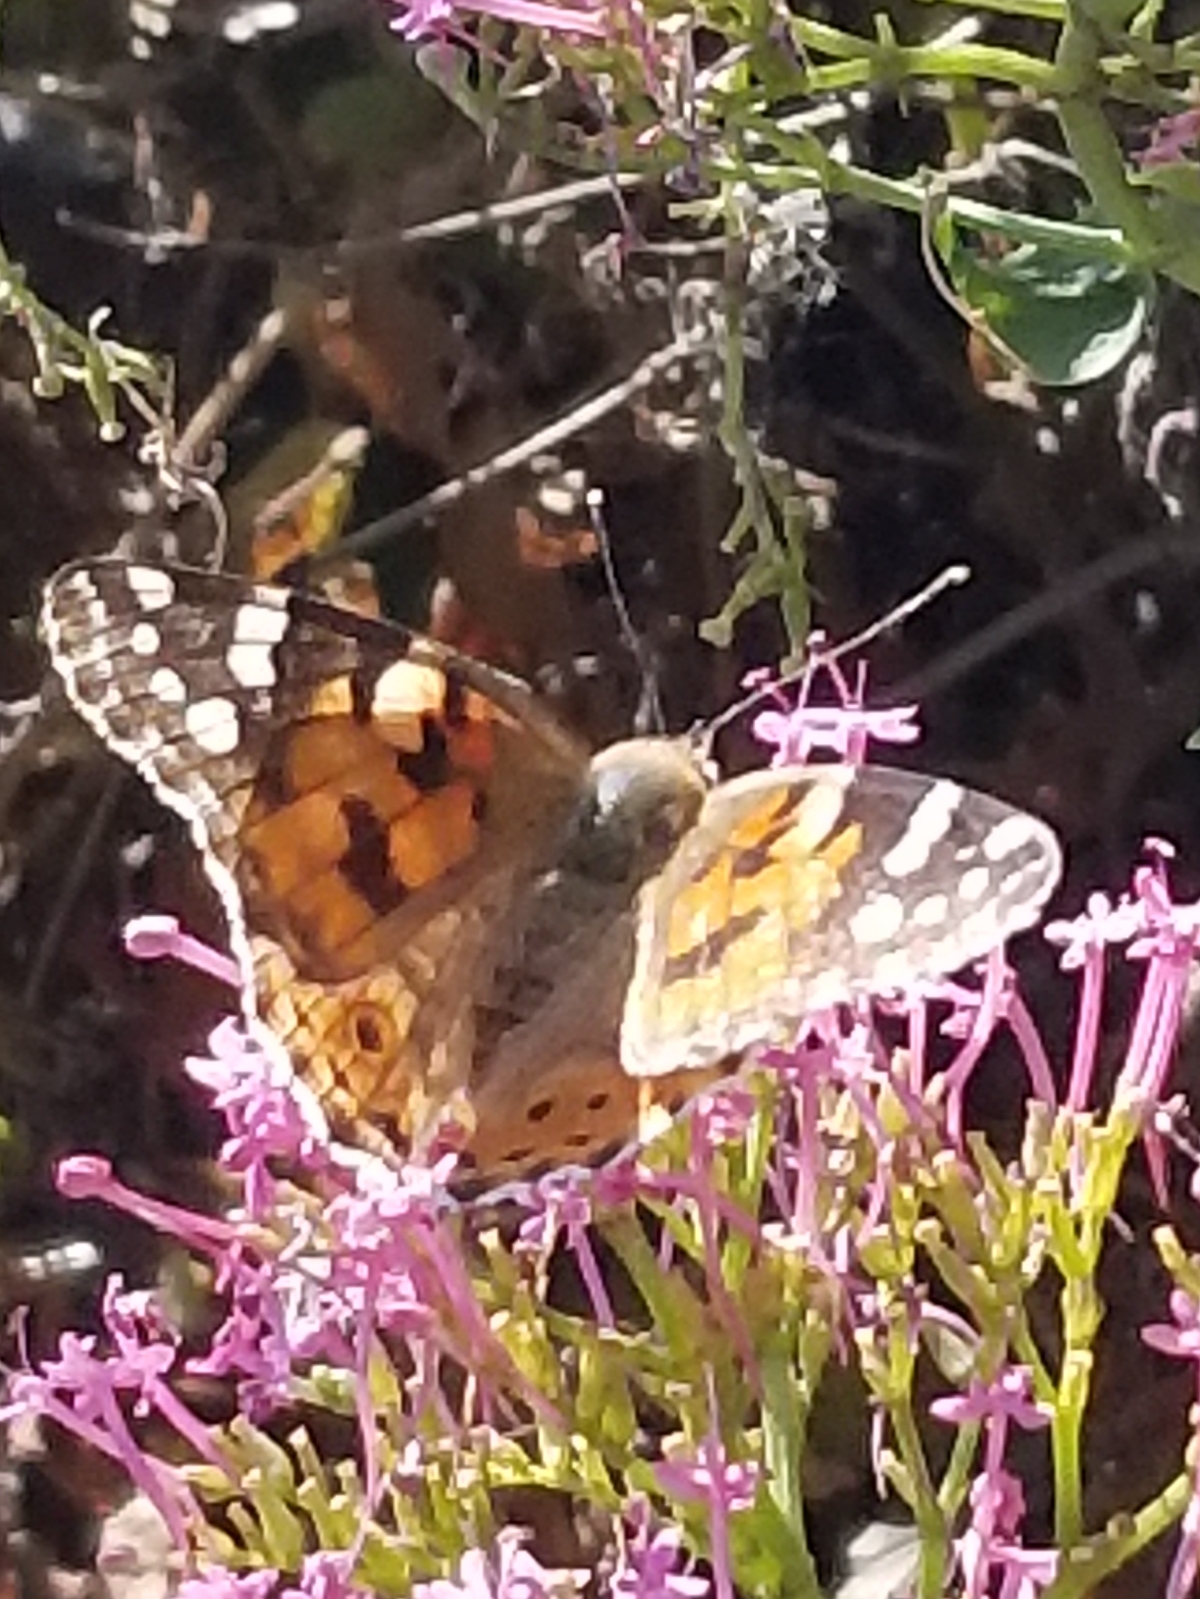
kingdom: Animalia
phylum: Arthropoda
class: Insecta
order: Lepidoptera
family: Nymphalidae
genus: Vanessa
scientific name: Vanessa cardui
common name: Painted lady
